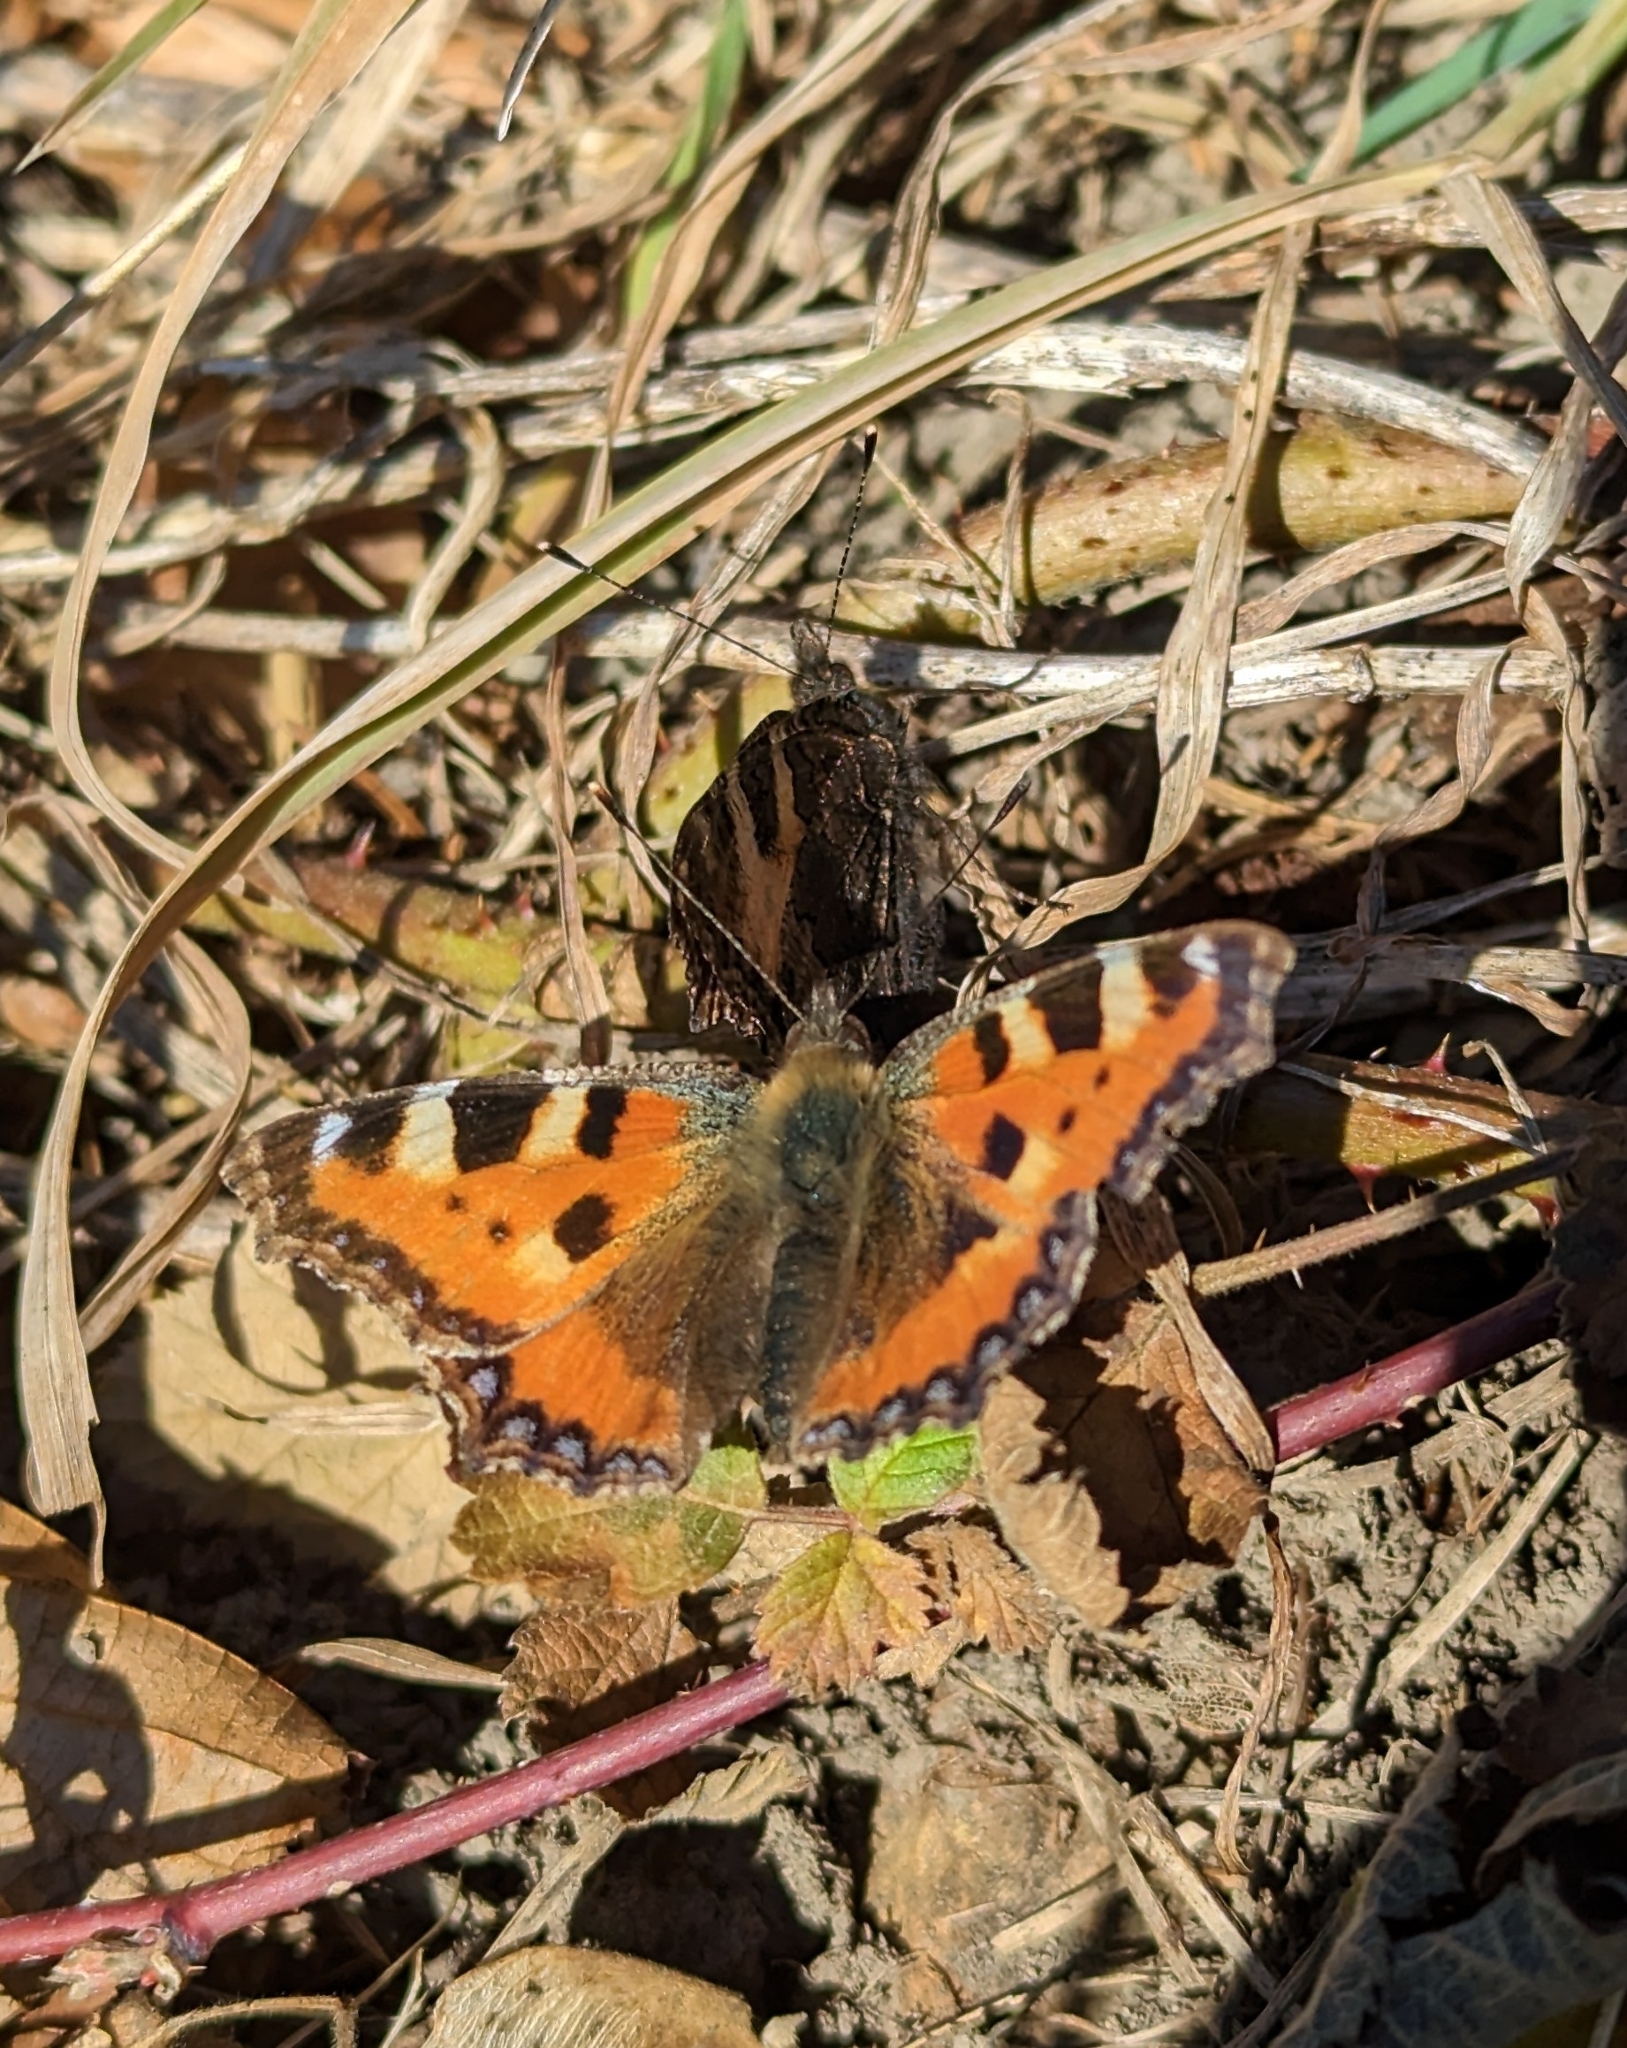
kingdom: Animalia
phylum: Arthropoda
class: Insecta
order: Lepidoptera
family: Nymphalidae
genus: Aglais
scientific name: Aglais urticae
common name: Small tortoiseshell
